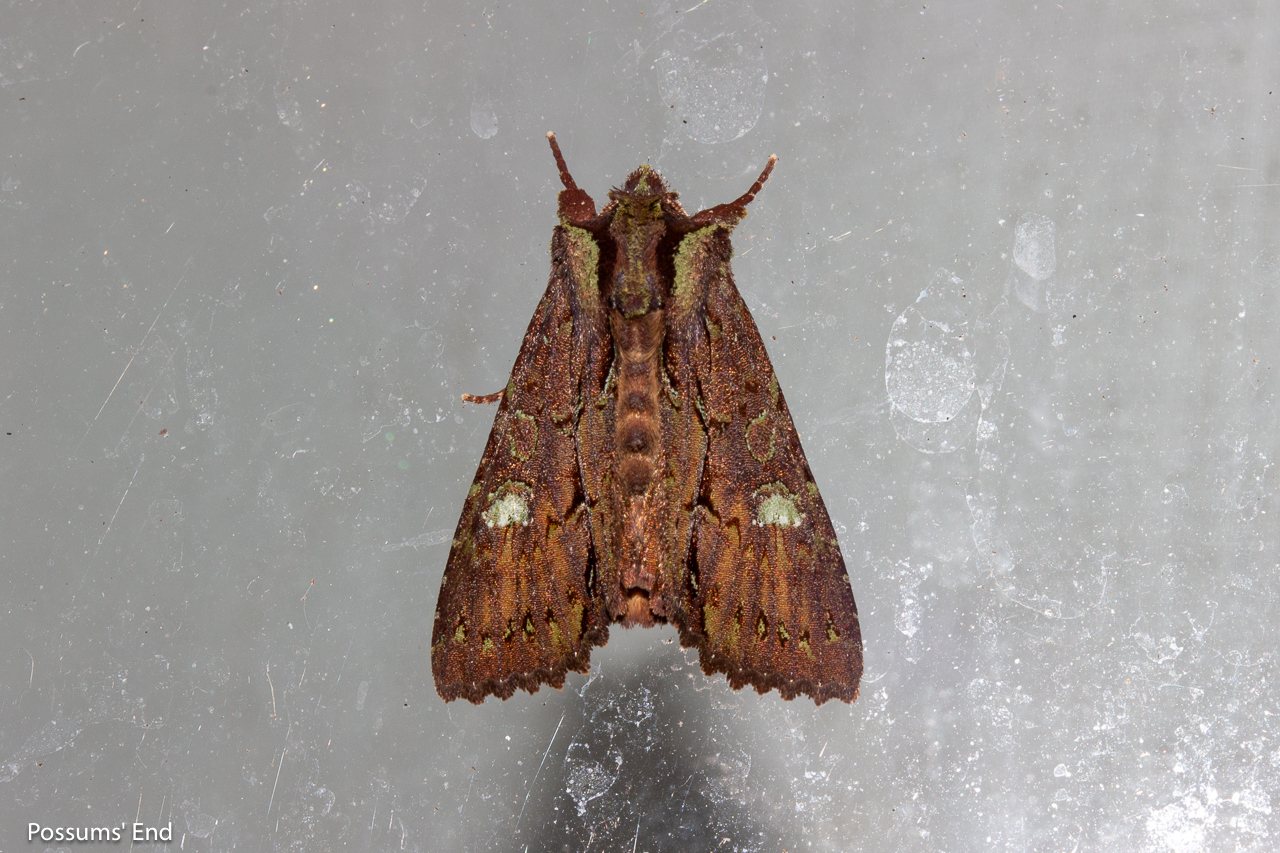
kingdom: Animalia
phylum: Arthropoda
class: Insecta
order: Lepidoptera
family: Noctuidae
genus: Meterana
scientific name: Meterana diatmeta
